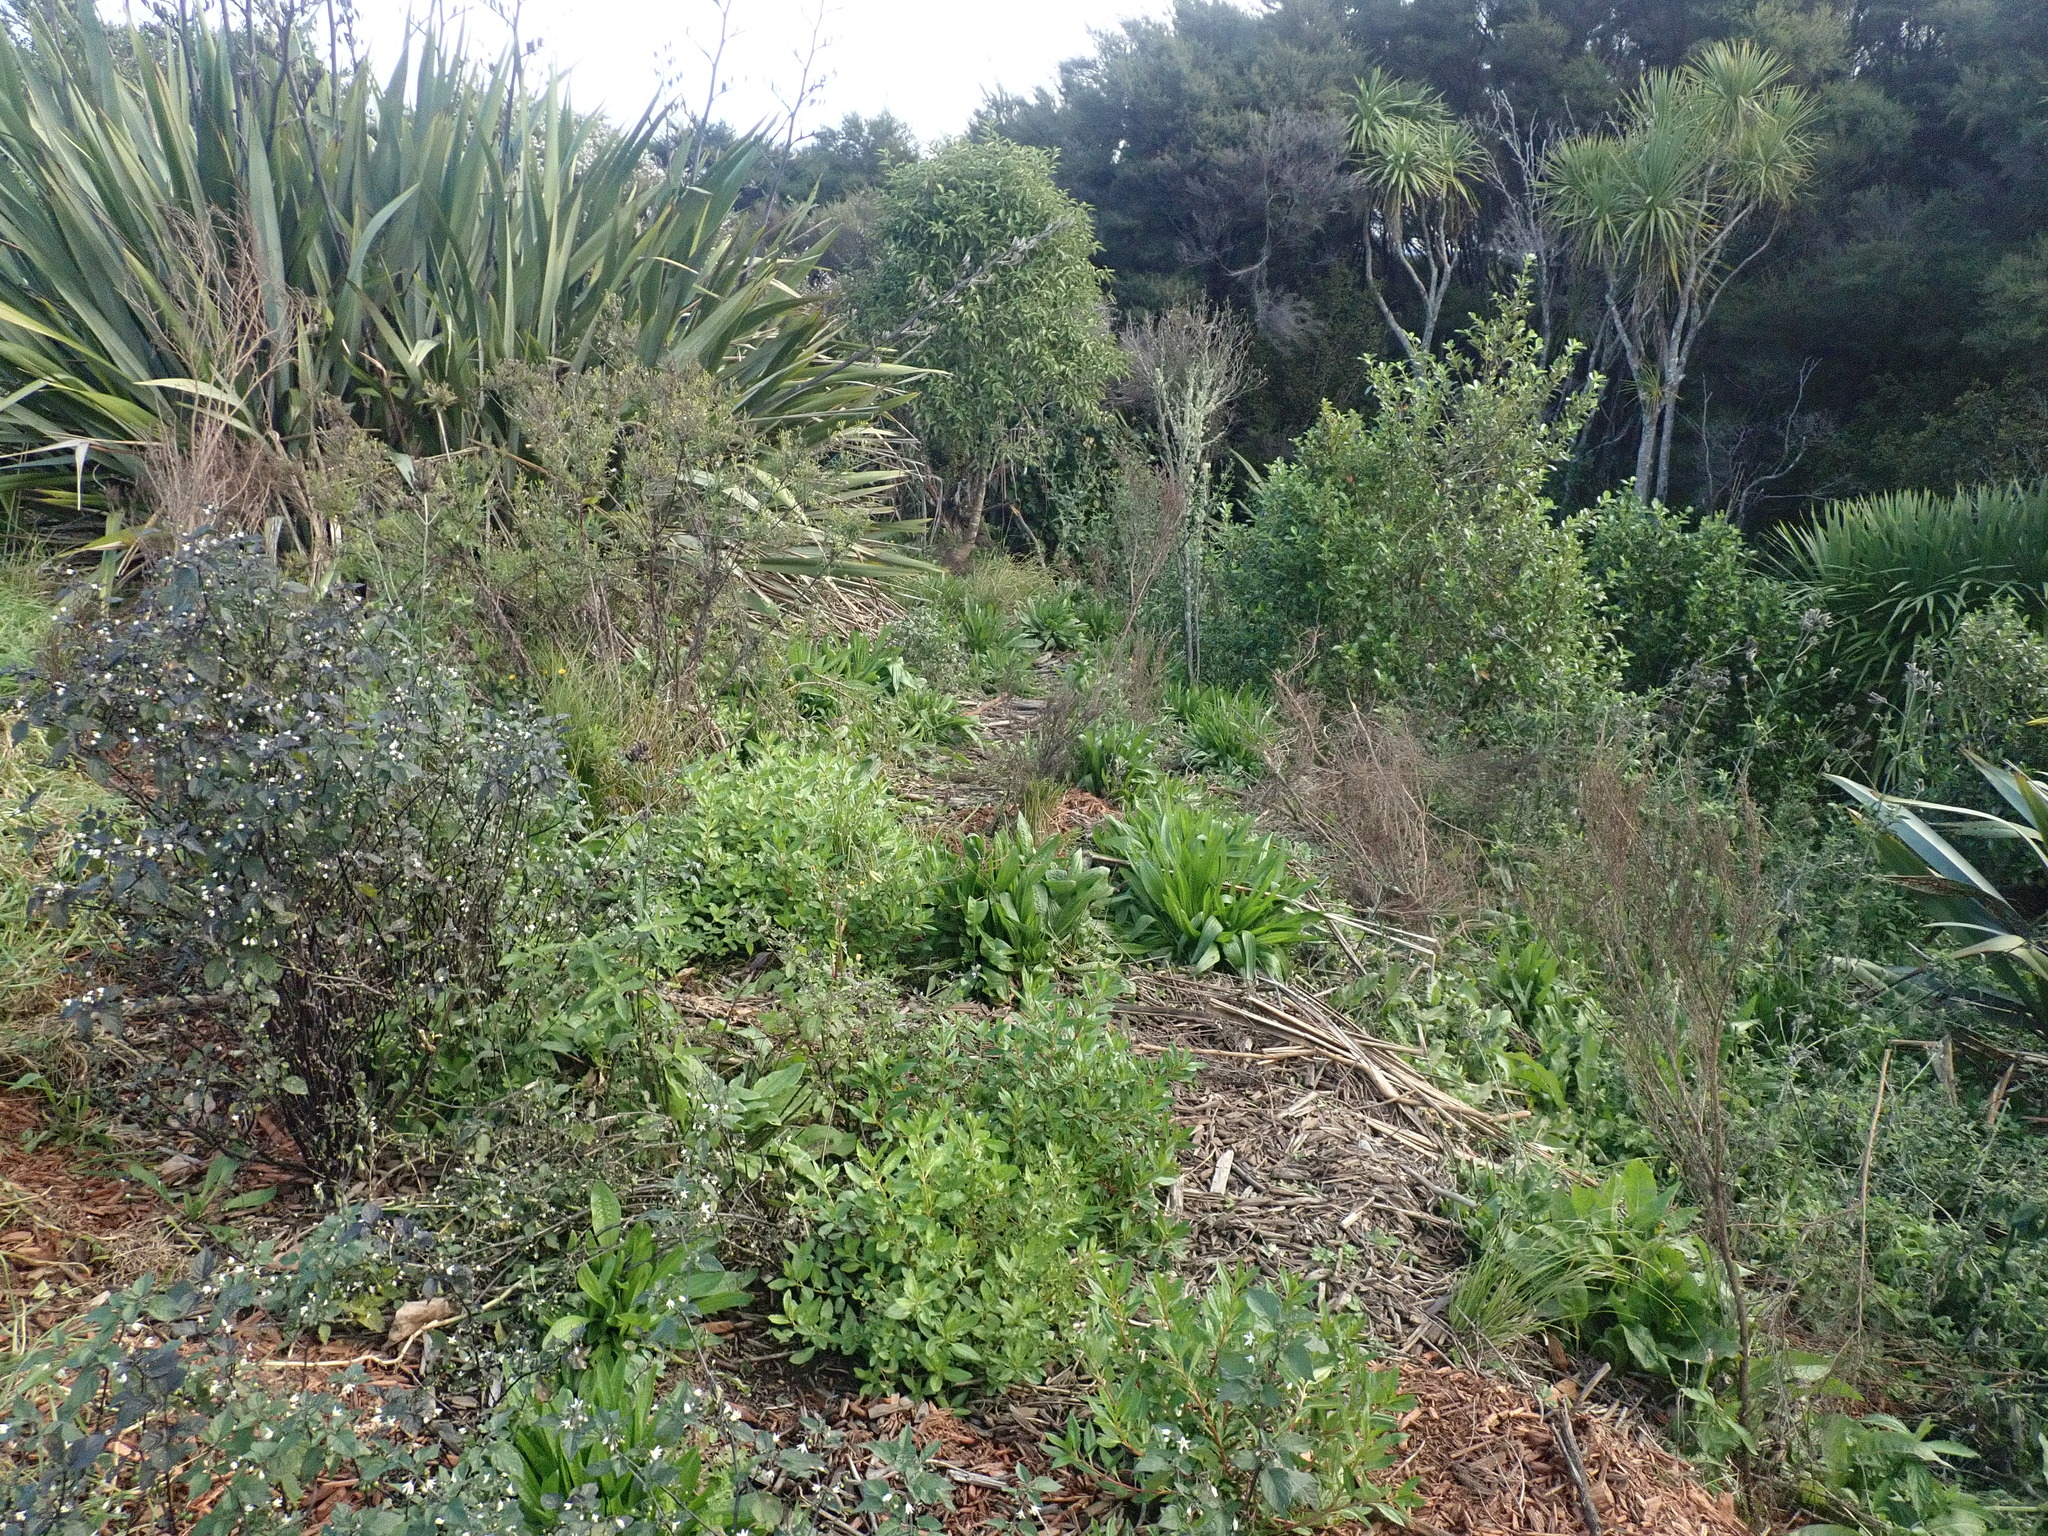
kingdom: Plantae
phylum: Tracheophyta
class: Magnoliopsida
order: Solanales
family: Solanaceae
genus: Solanum
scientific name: Solanum nigrum
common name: Black nightshade
